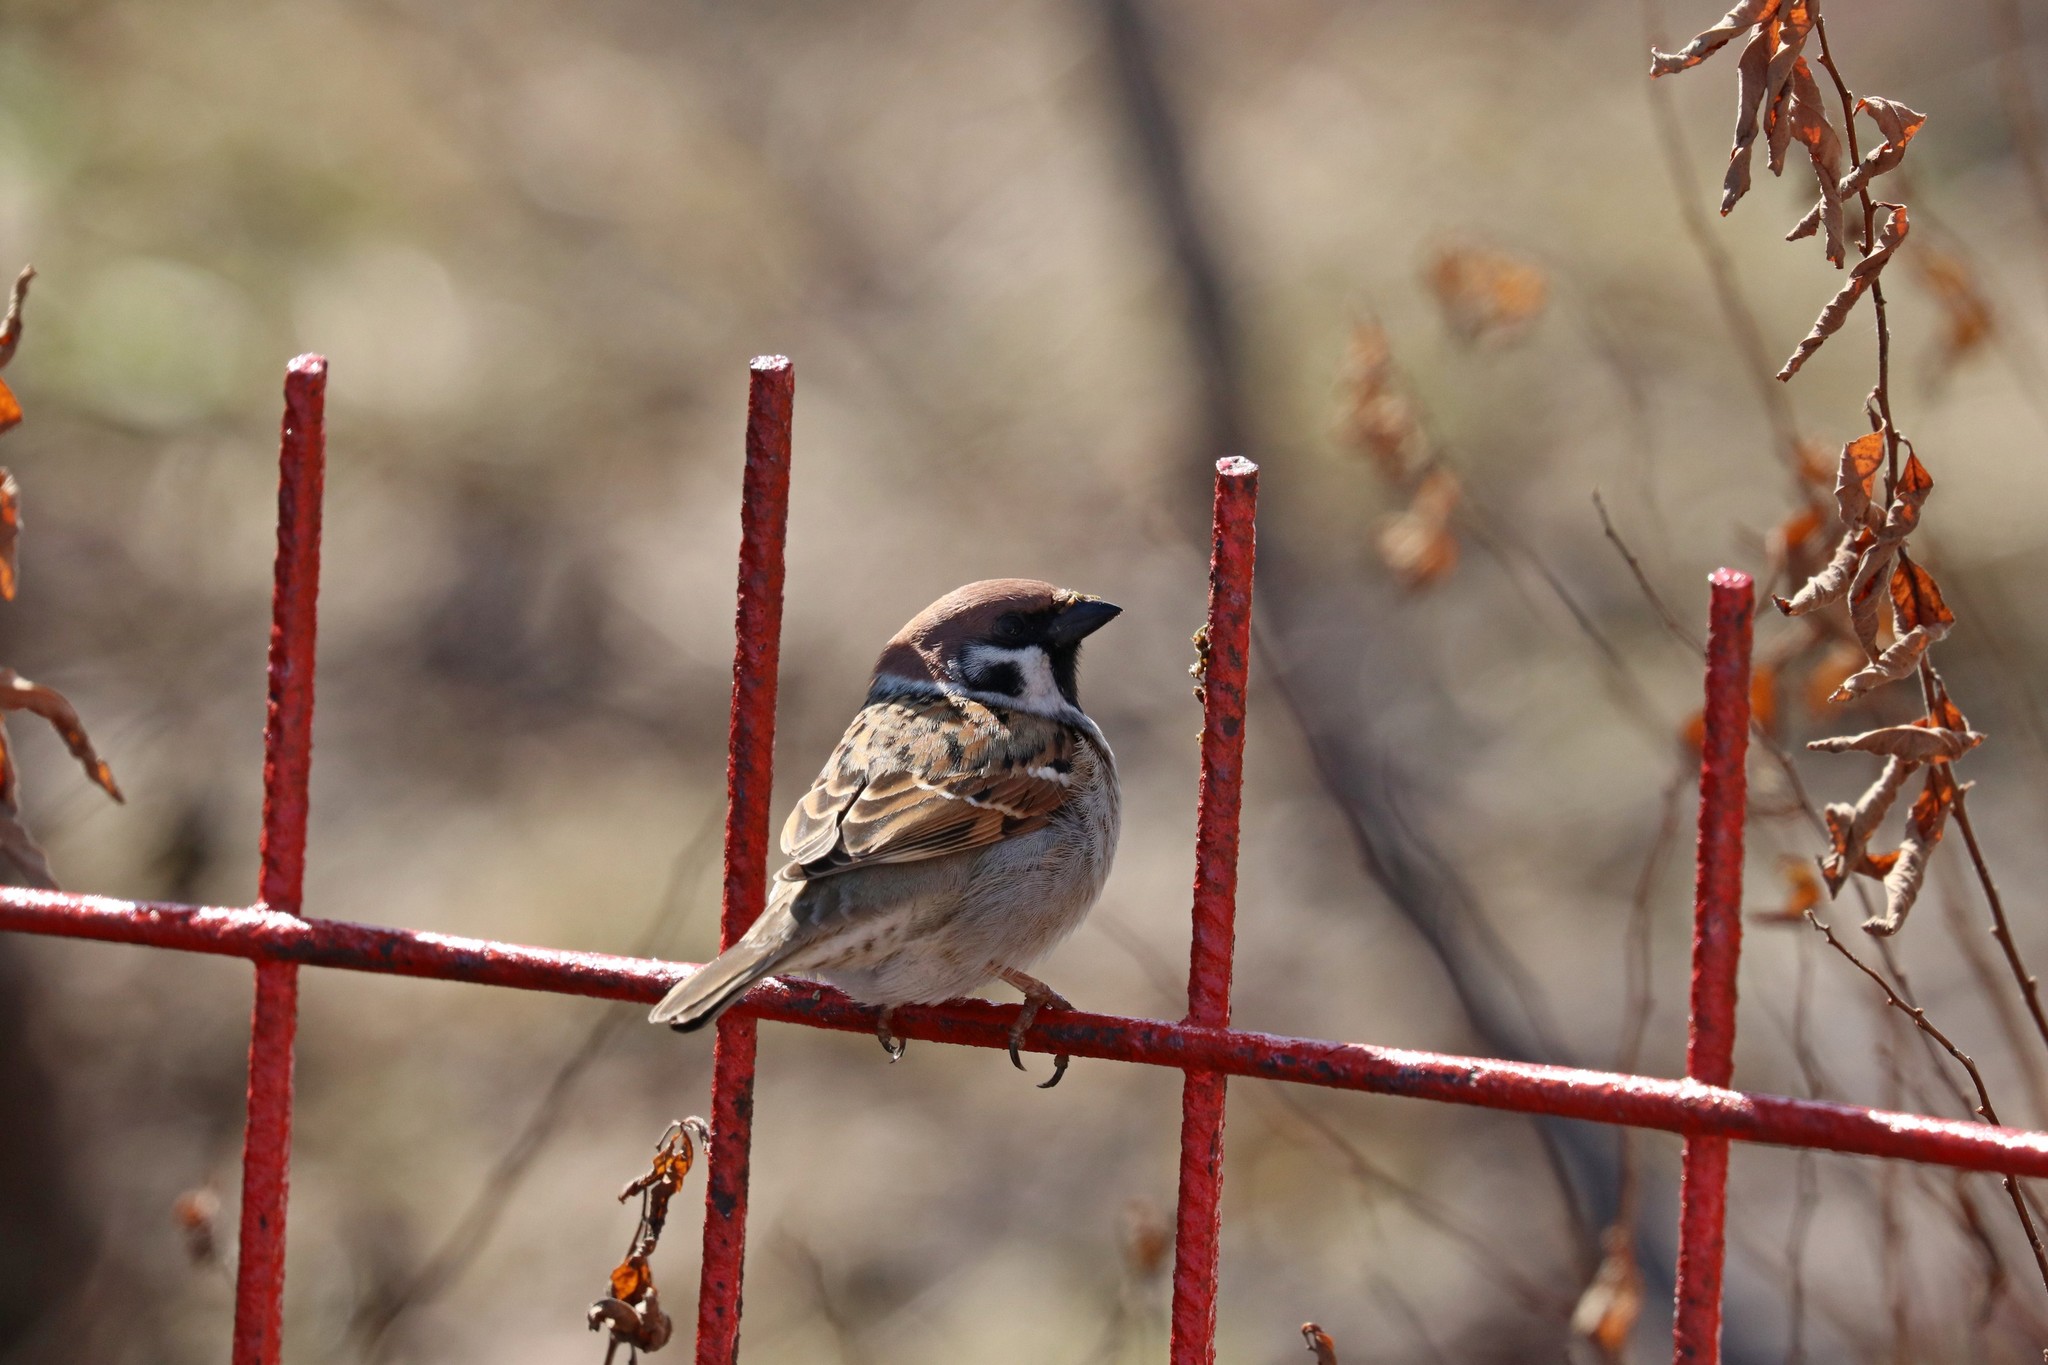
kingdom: Animalia
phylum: Chordata
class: Aves
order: Passeriformes
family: Passeridae
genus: Passer
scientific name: Passer montanus
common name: Eurasian tree sparrow
